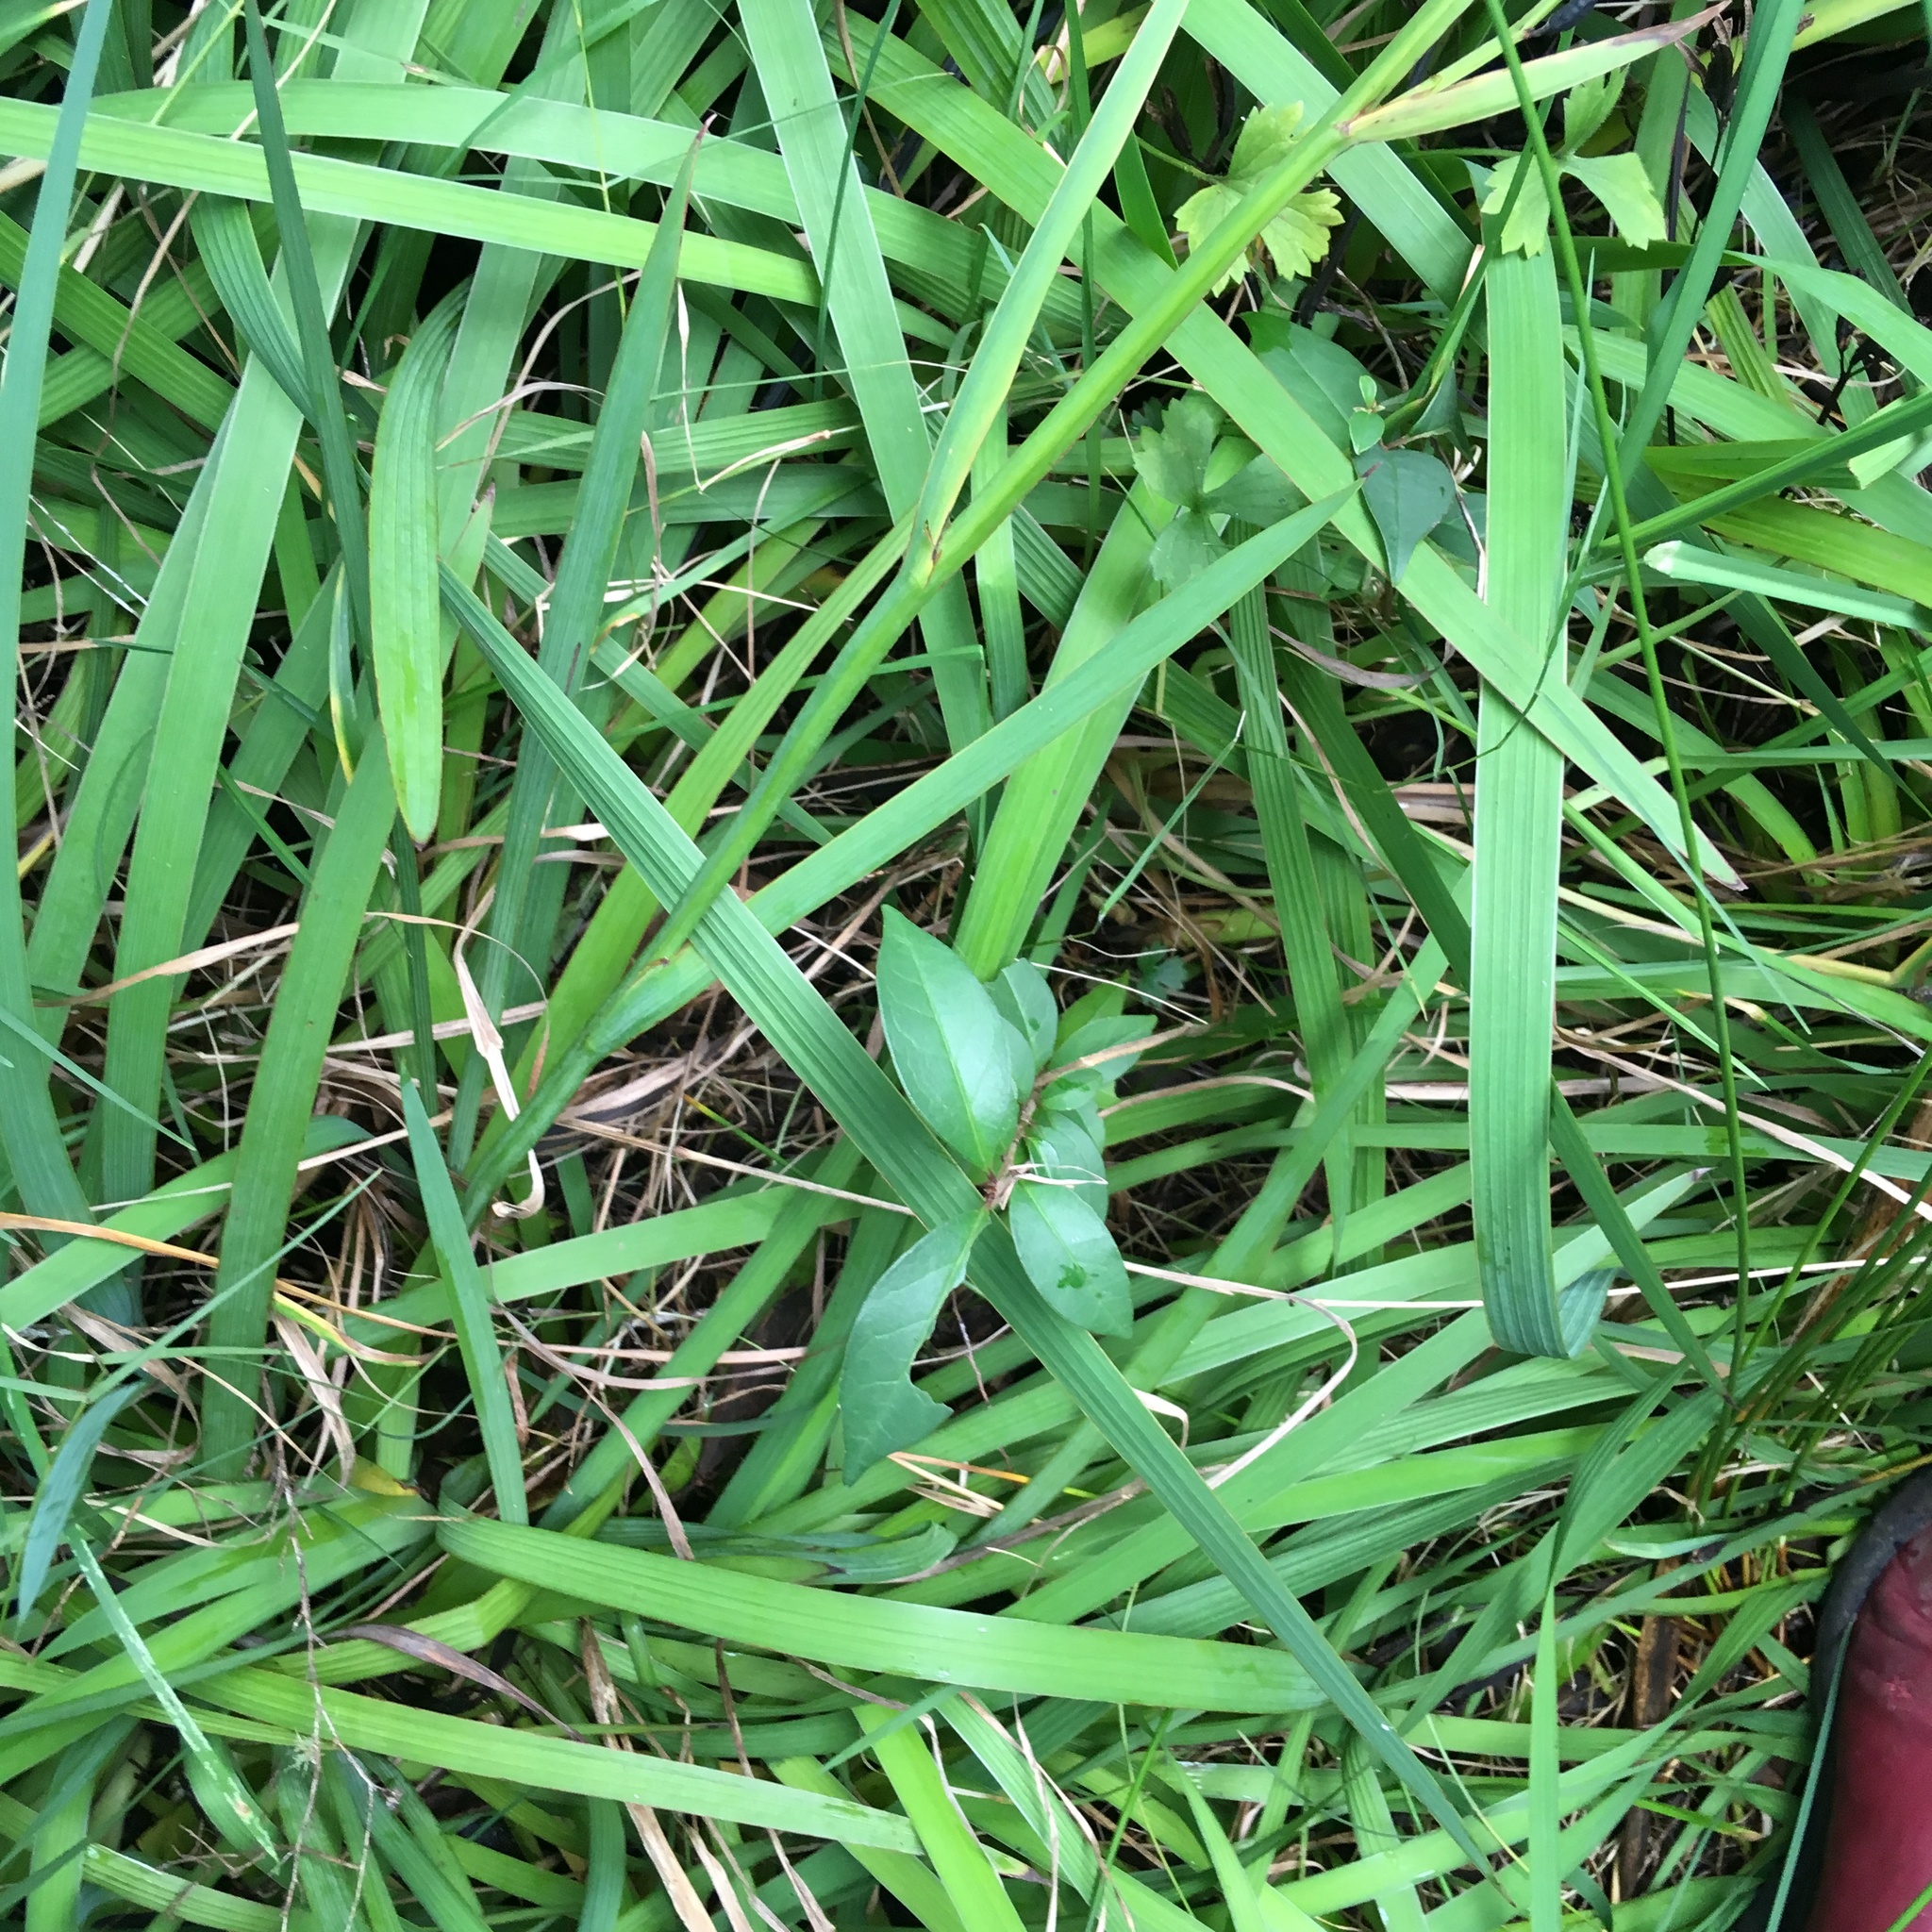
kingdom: Plantae
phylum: Tracheophyta
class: Liliopsida
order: Asparagales
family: Iridaceae
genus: Aristea
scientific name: Aristea ecklonii
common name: Blue corn-lily
